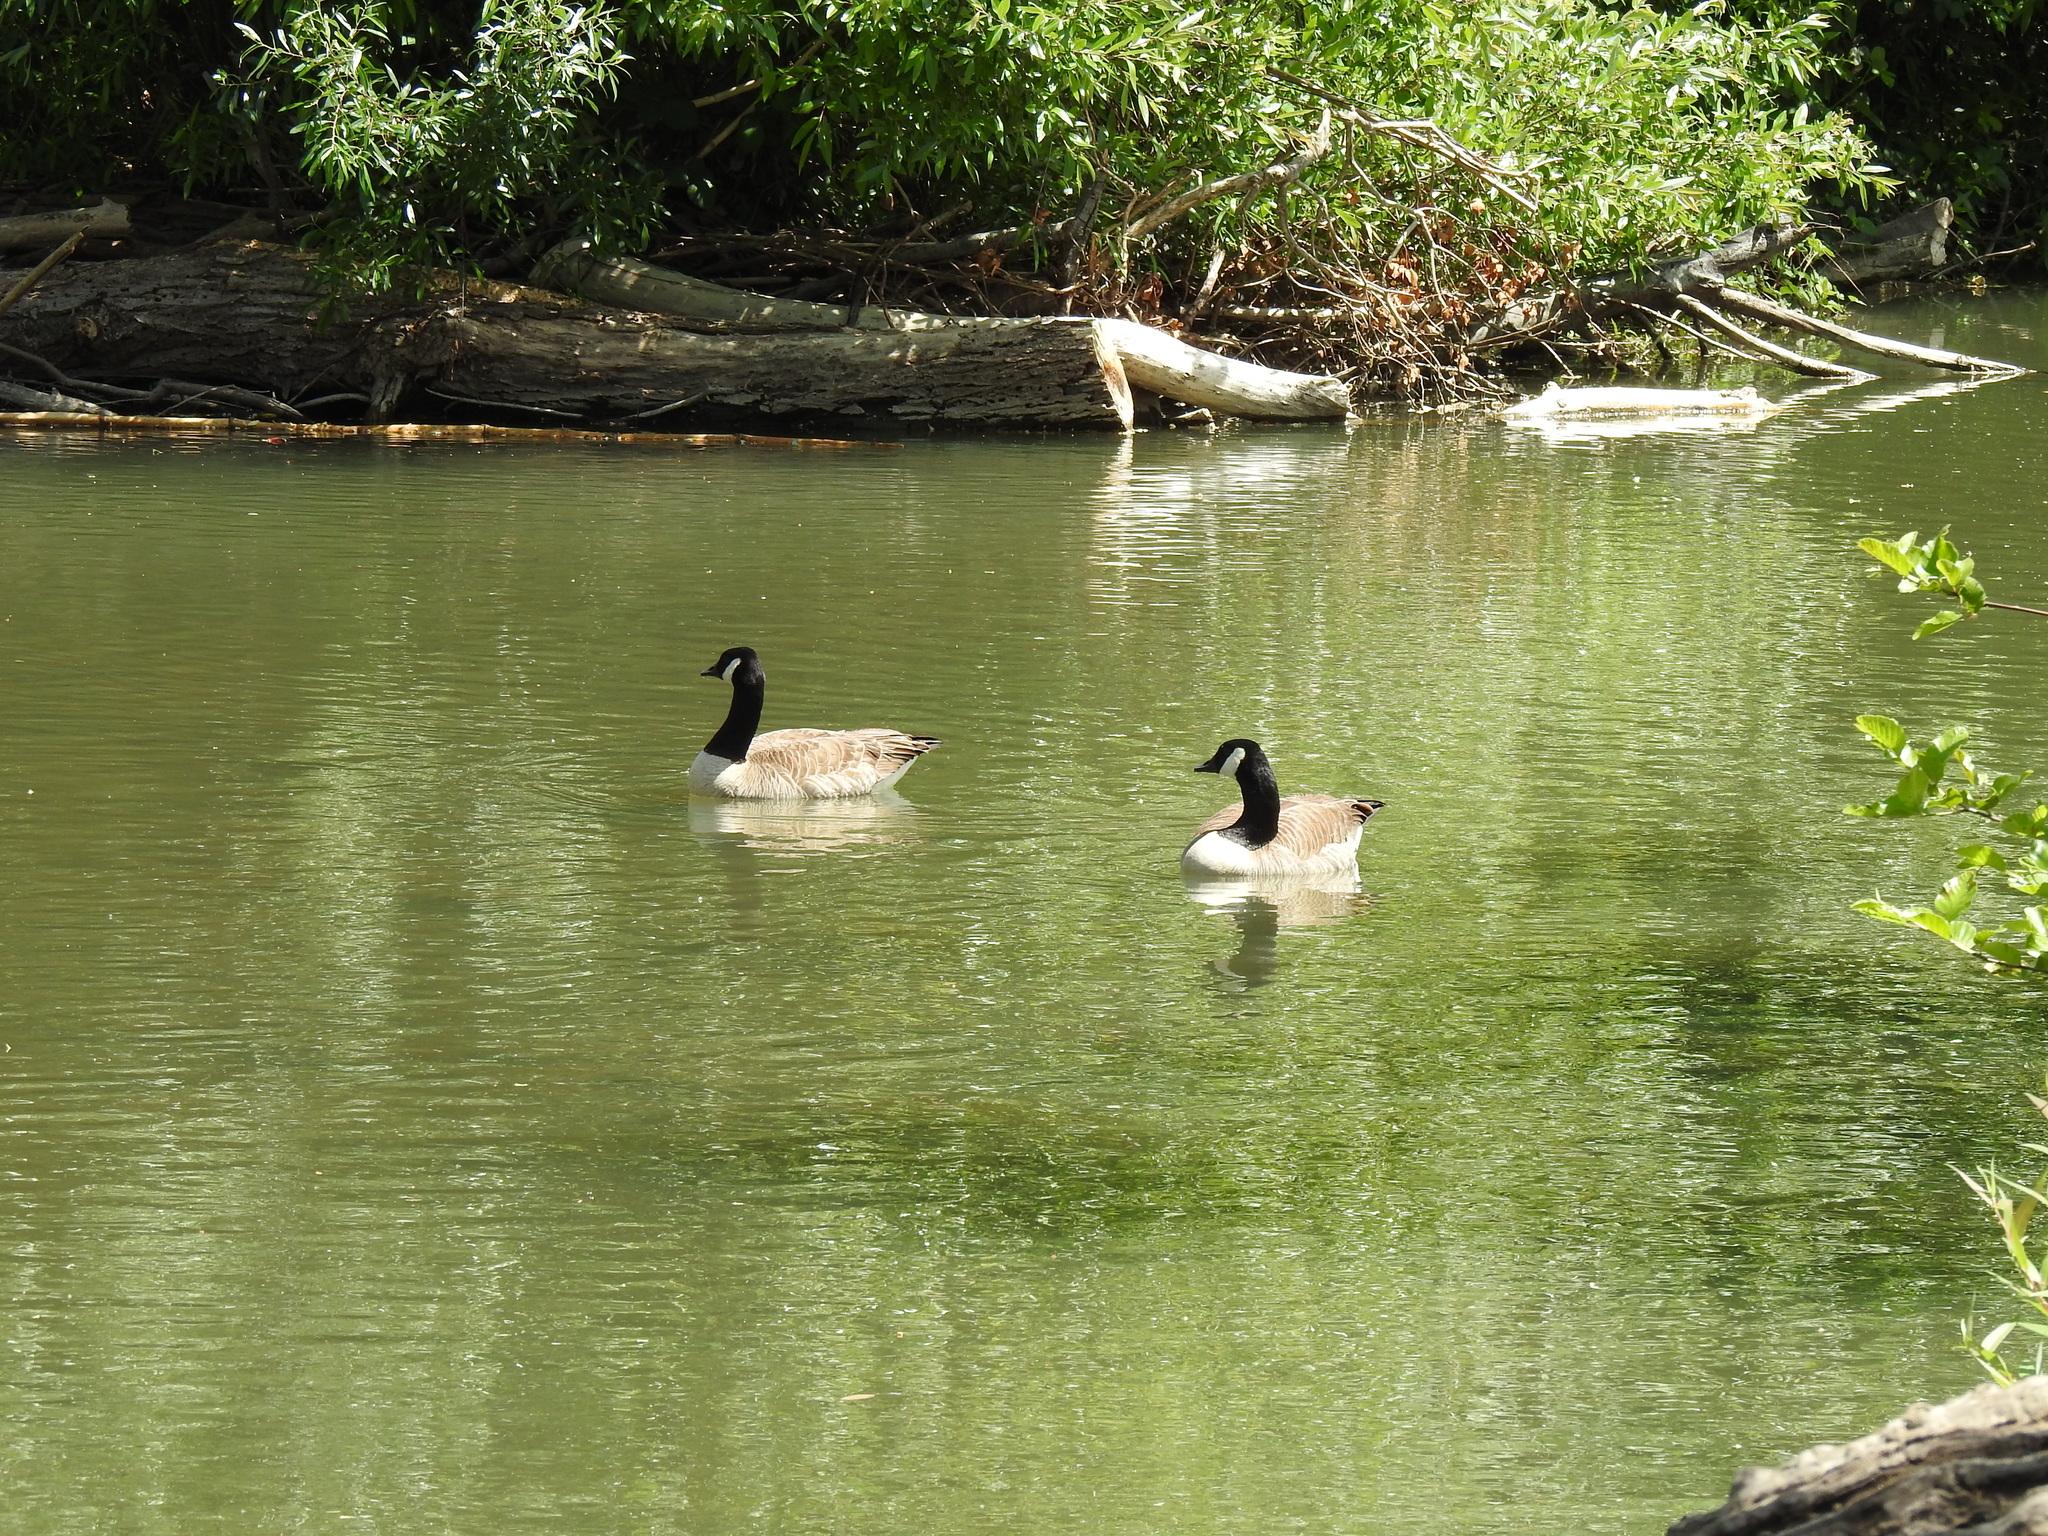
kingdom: Animalia
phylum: Chordata
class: Aves
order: Anseriformes
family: Anatidae
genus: Branta
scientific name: Branta canadensis
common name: Canada goose
